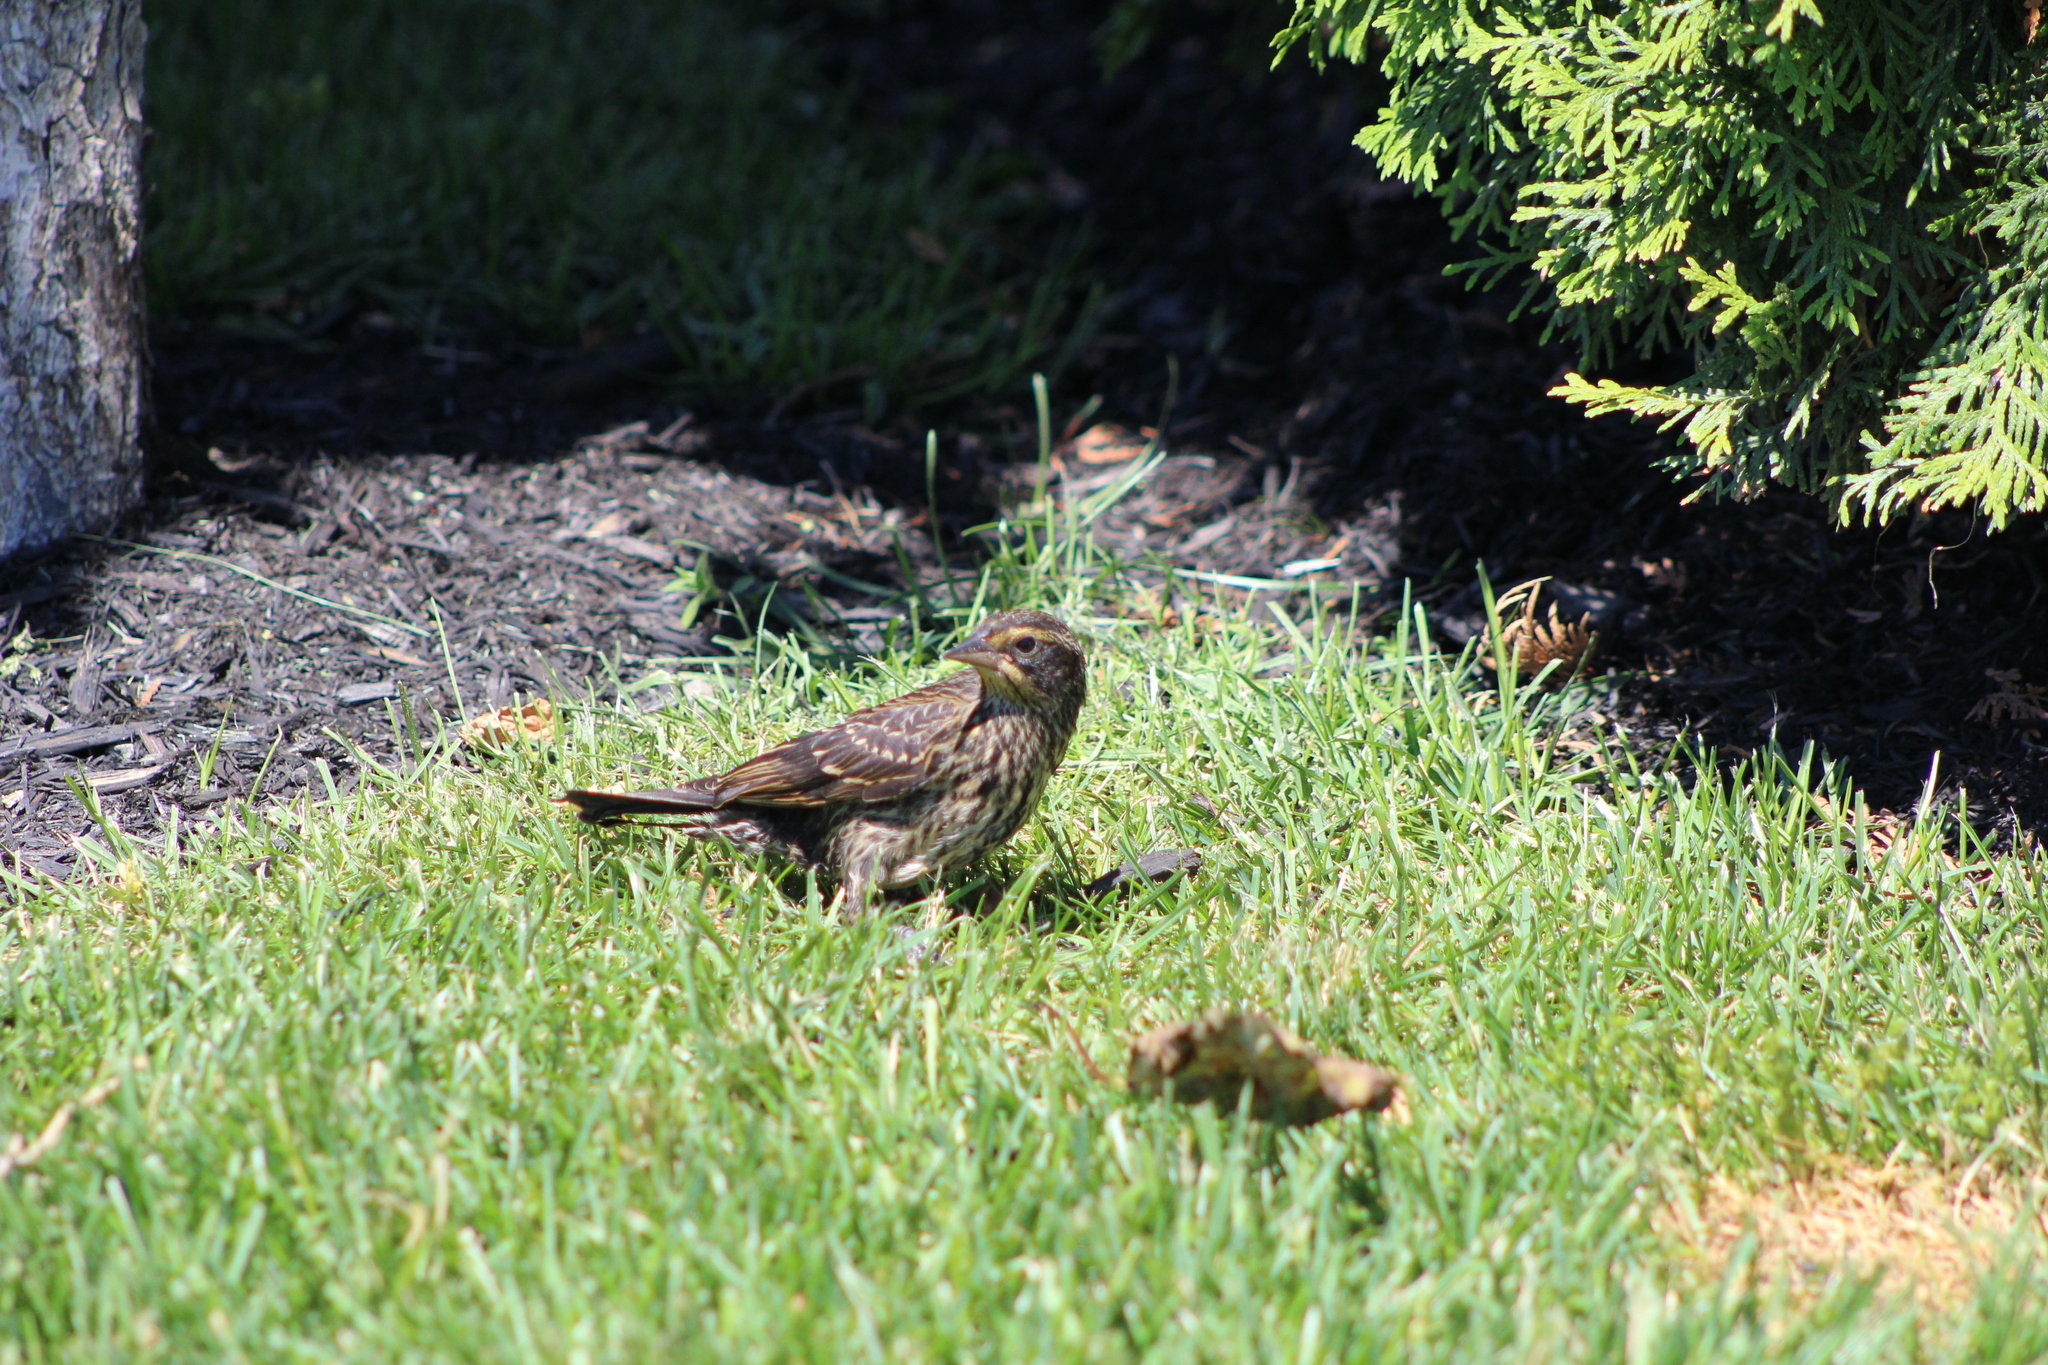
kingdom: Animalia
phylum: Chordata
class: Aves
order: Passeriformes
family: Icteridae
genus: Agelaius
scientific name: Agelaius phoeniceus
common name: Red-winged blackbird
